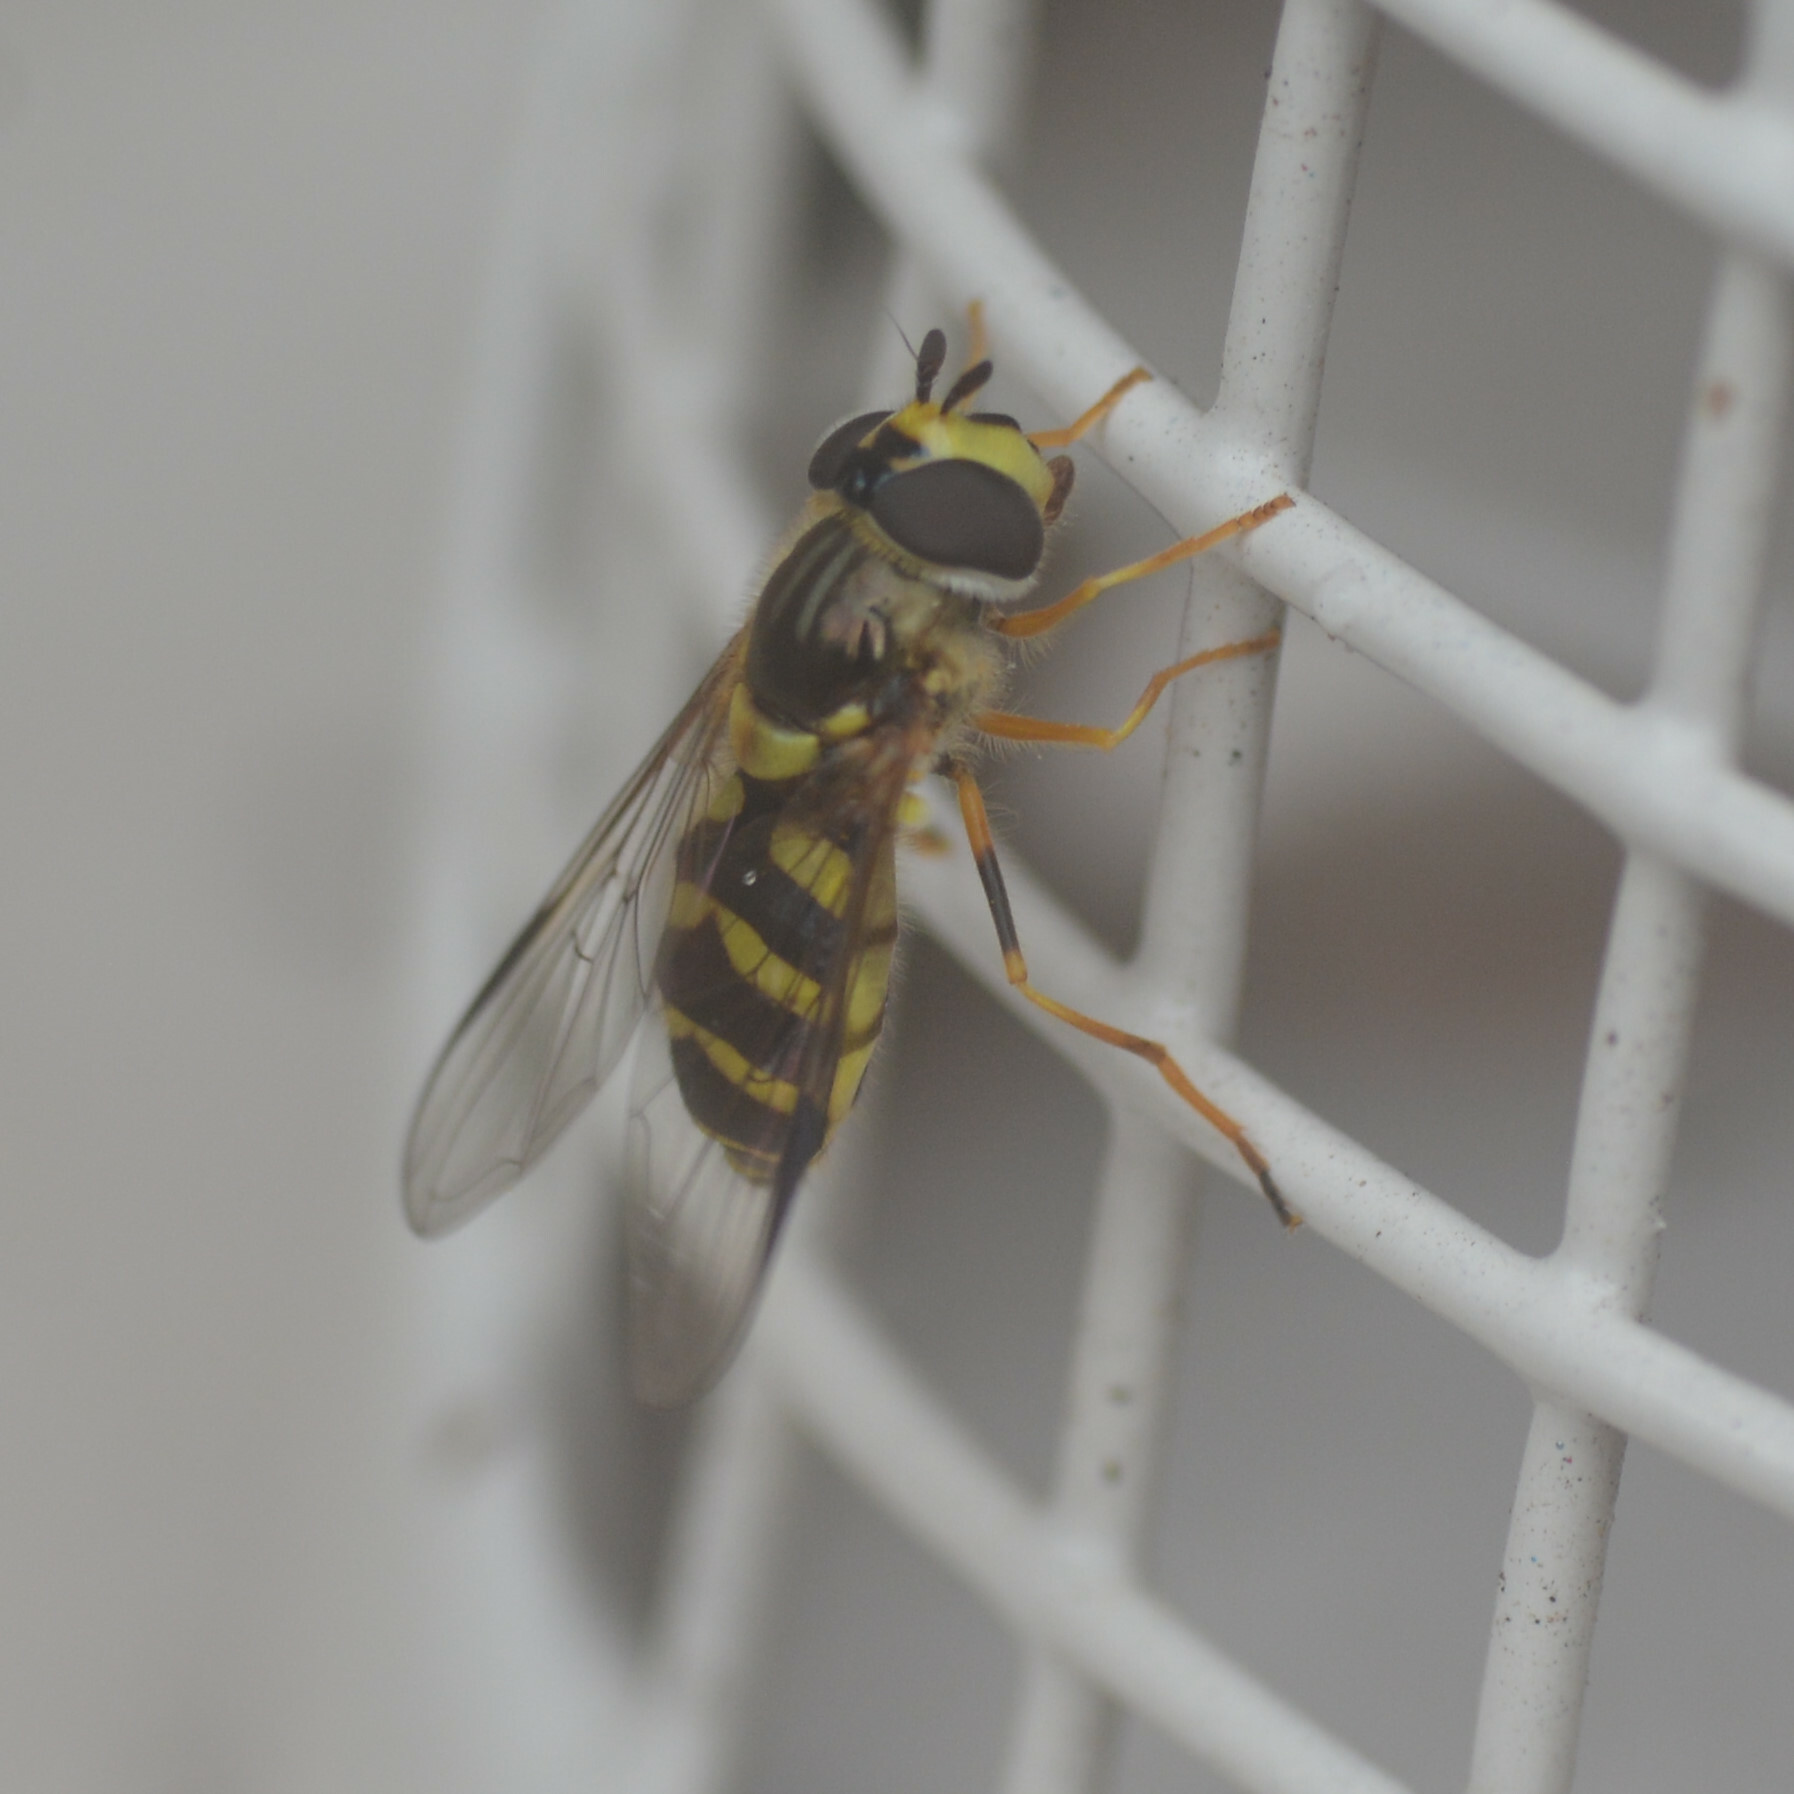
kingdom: Animalia
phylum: Arthropoda
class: Insecta
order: Diptera
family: Syrphidae
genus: Dasysyrphus
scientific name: Dasysyrphus albostriatus
